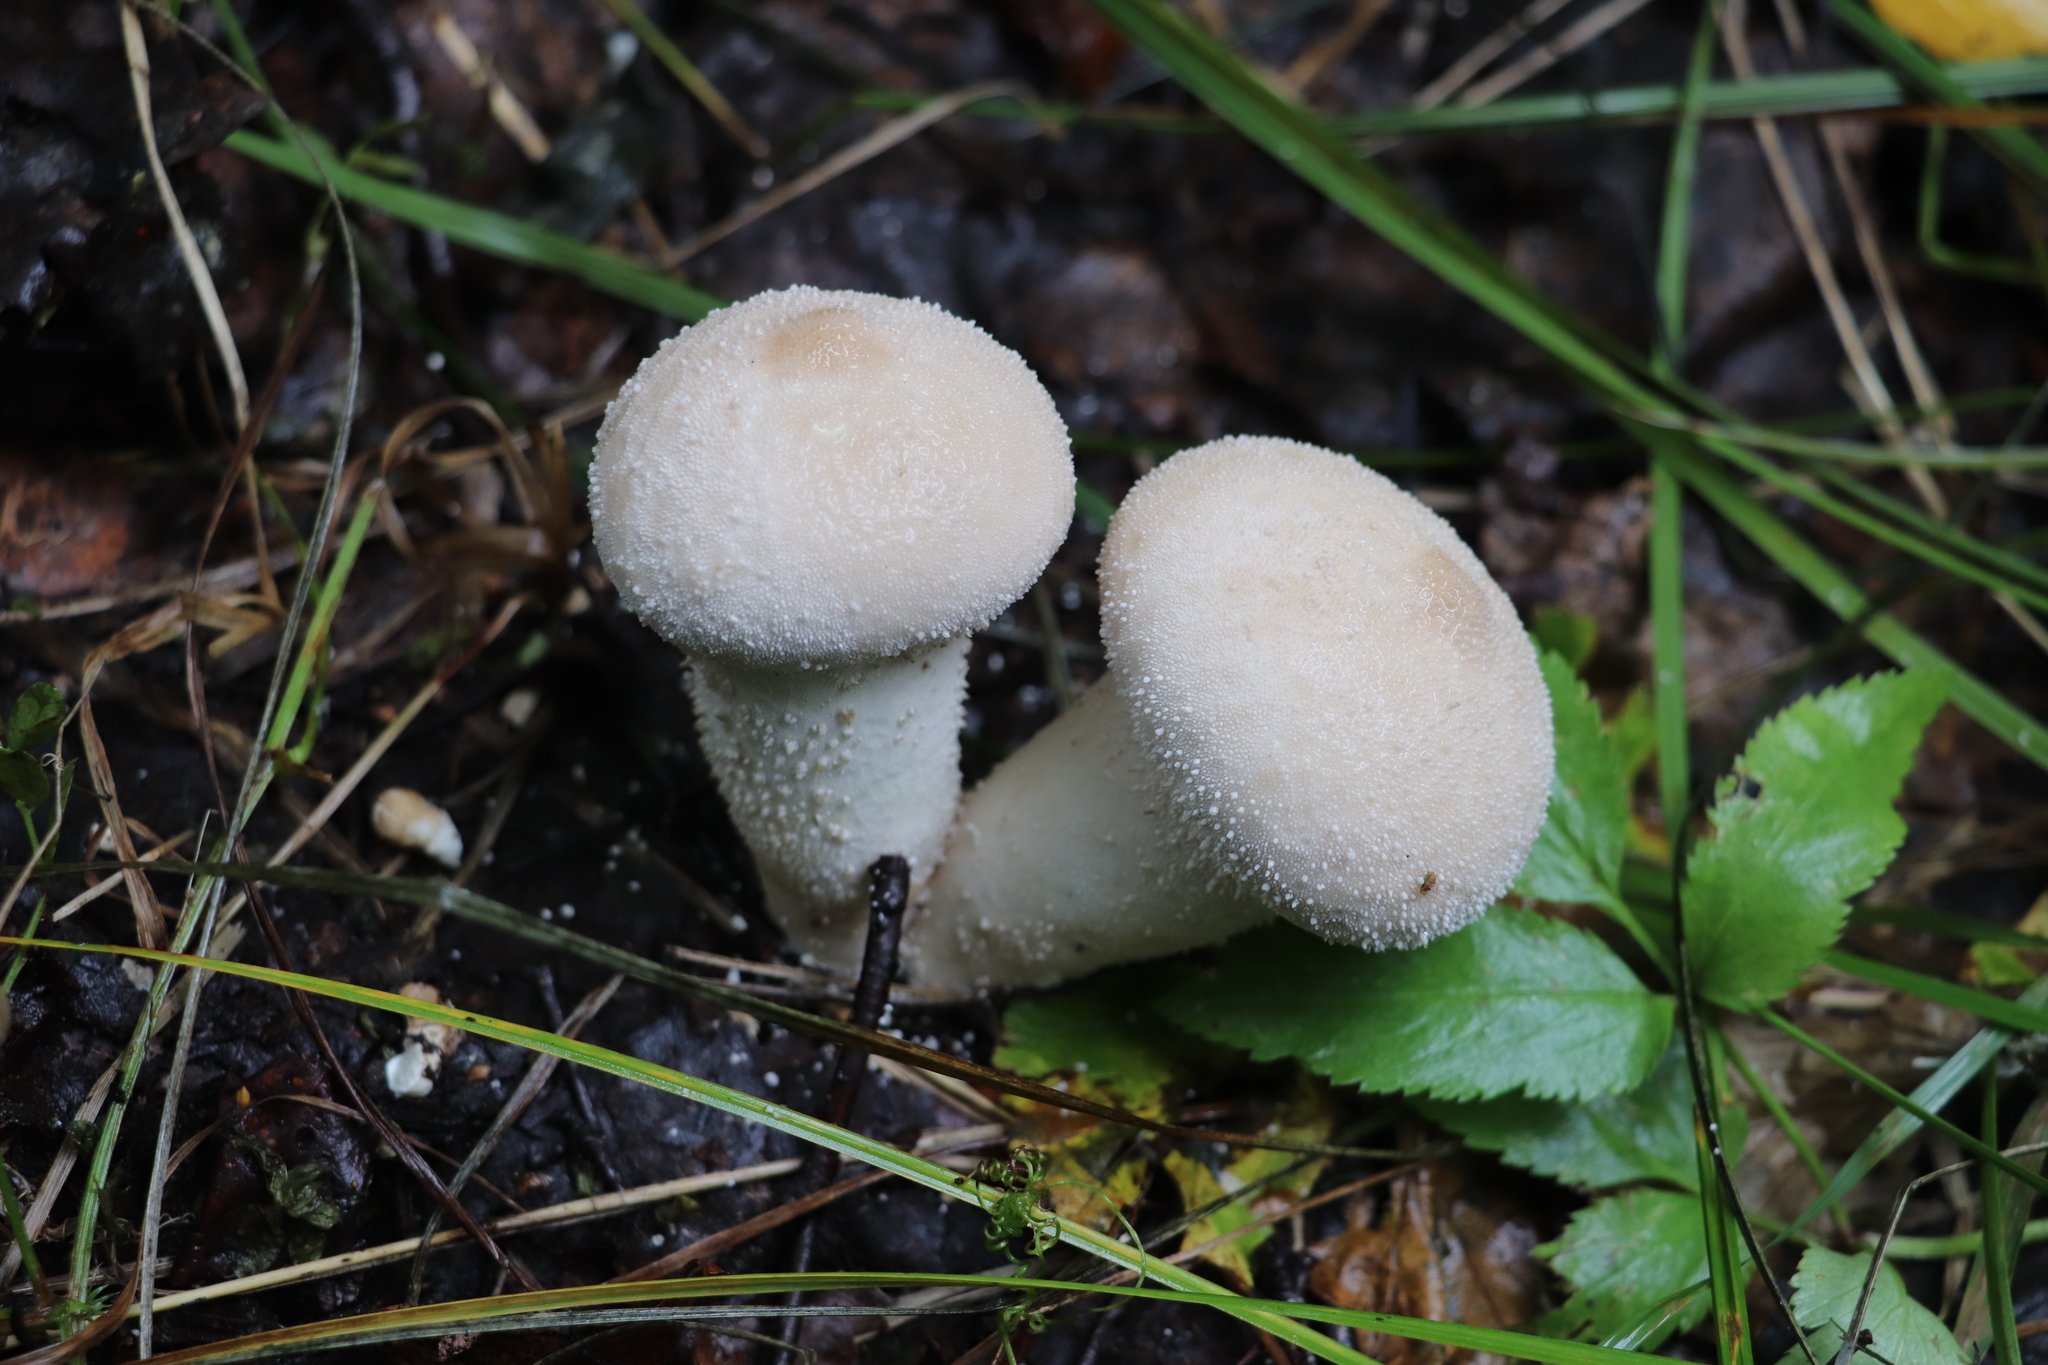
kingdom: Fungi
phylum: Basidiomycota
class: Agaricomycetes
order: Agaricales
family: Lycoperdaceae
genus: Lycoperdon
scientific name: Lycoperdon perlatum
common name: Common puffball
